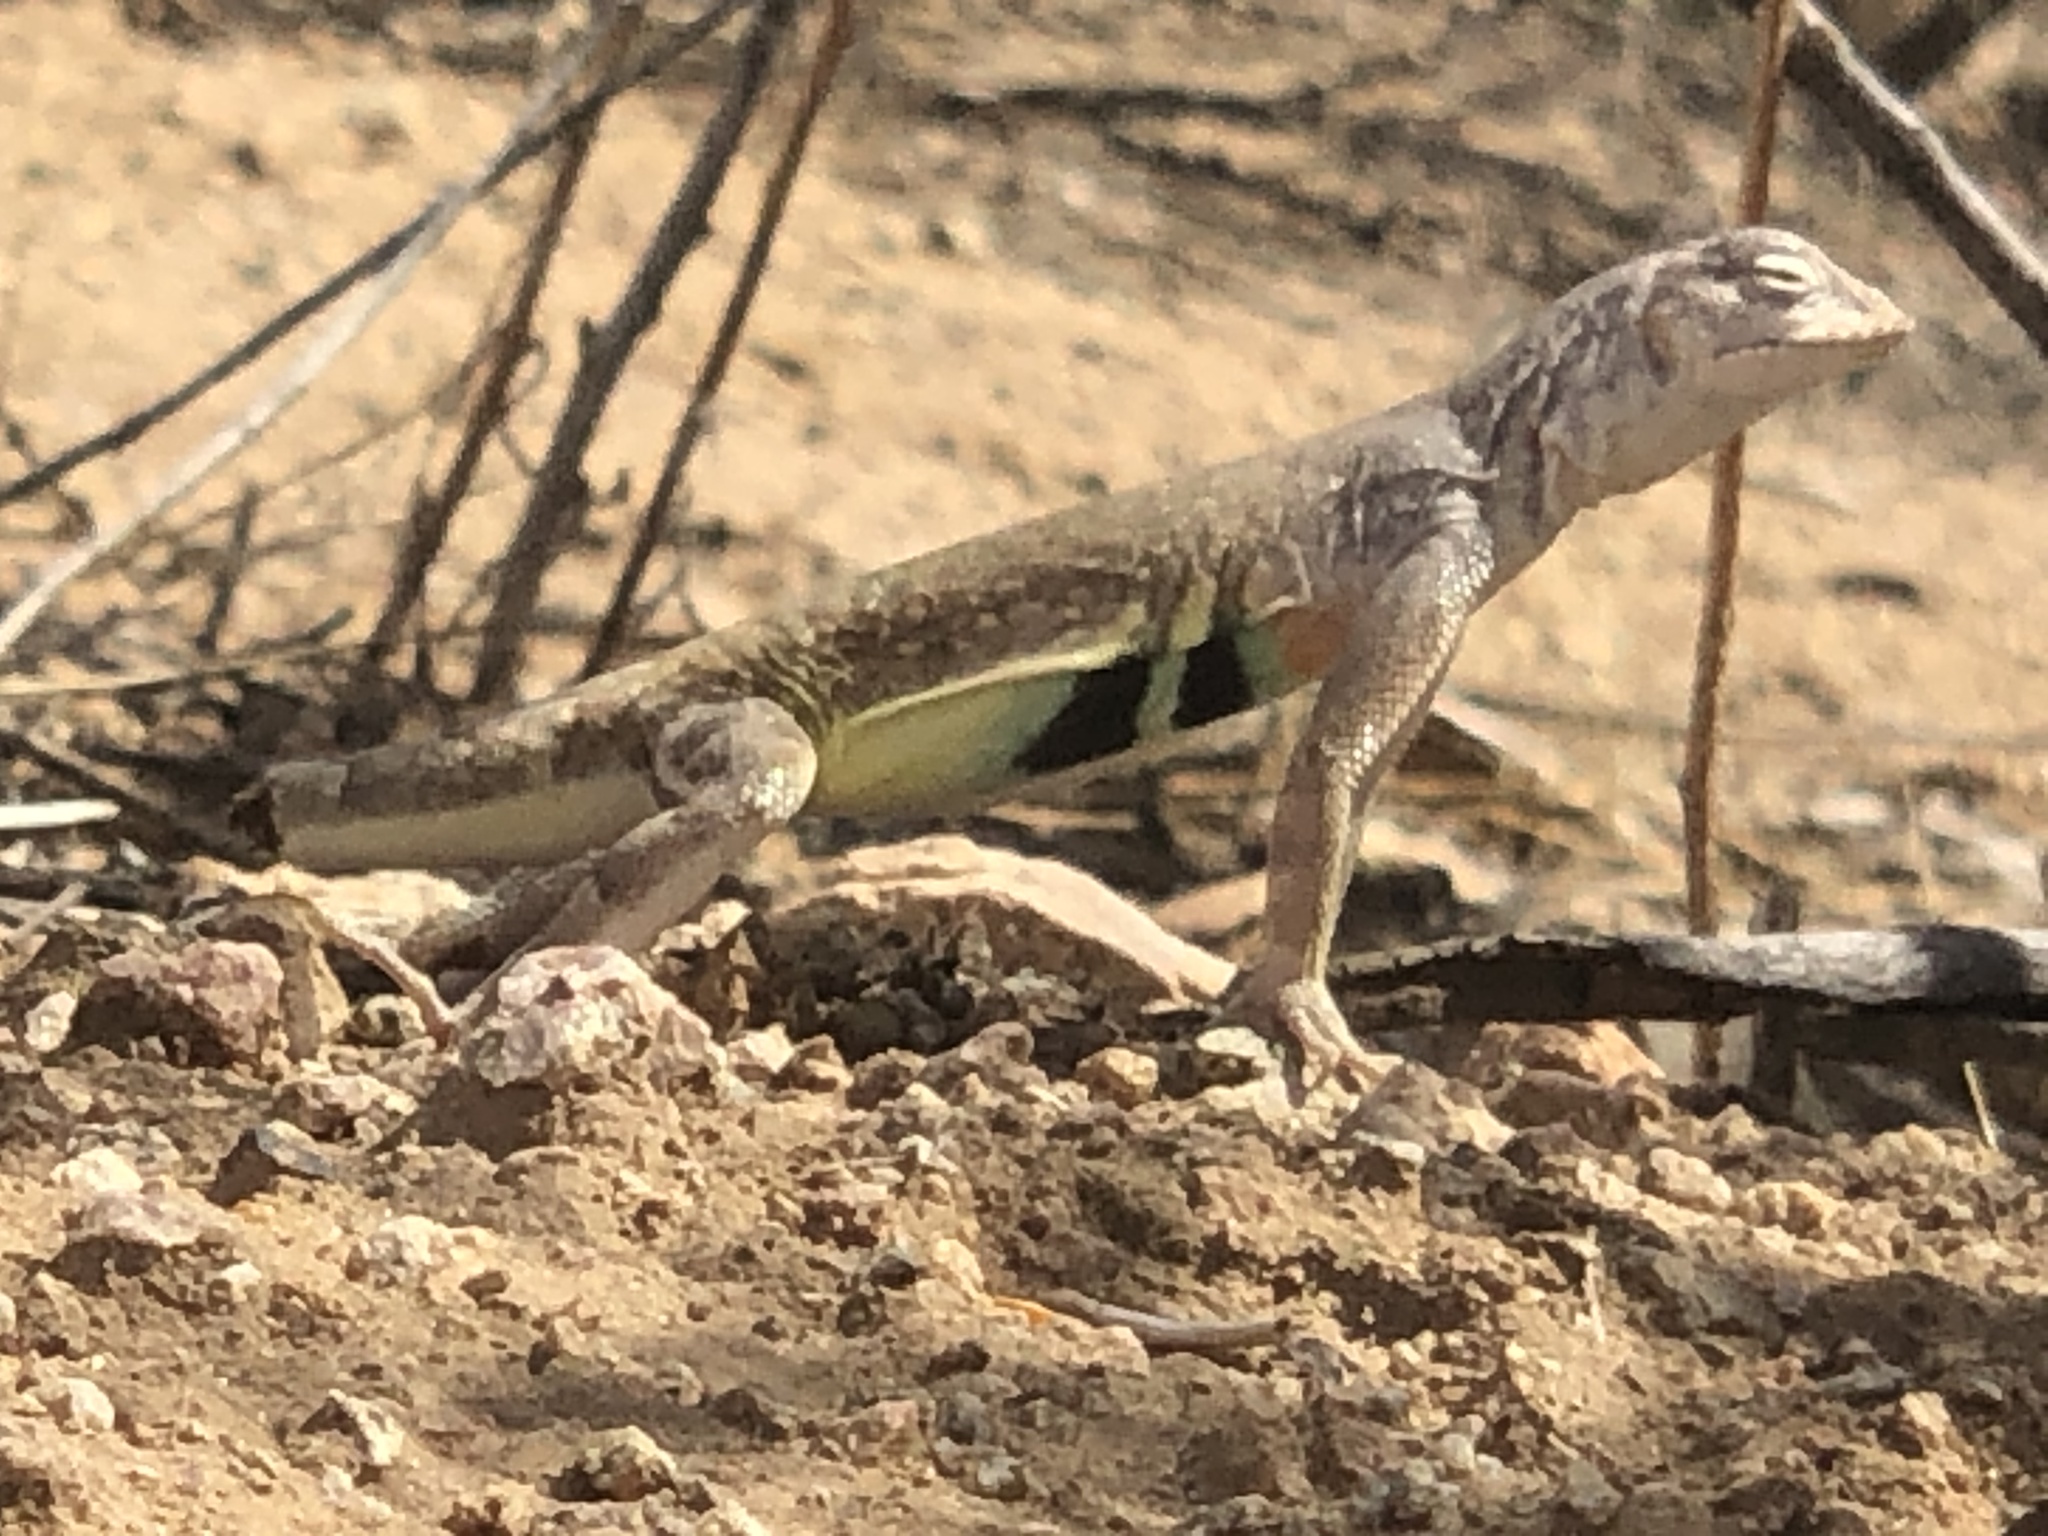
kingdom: Animalia
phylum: Chordata
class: Squamata
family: Phrynosomatidae
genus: Callisaurus
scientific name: Callisaurus draconoides
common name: Zebra-tailed lizard
